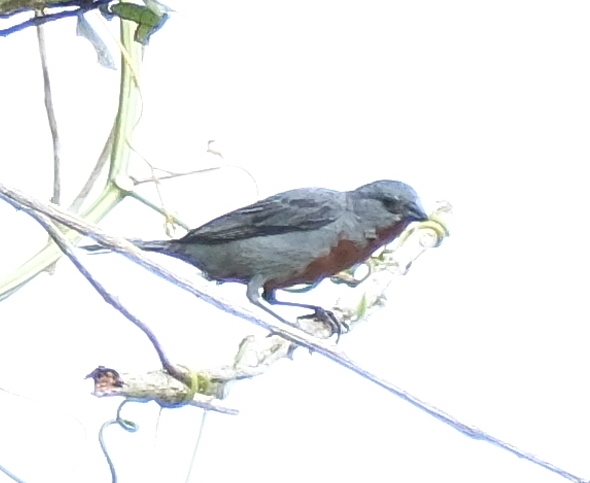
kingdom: Animalia
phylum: Chordata
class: Aves
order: Passeriformes
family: Thraupidae
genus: Sporophila
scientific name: Sporophila castaneiventris
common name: Chestnut-bellied seedeater
